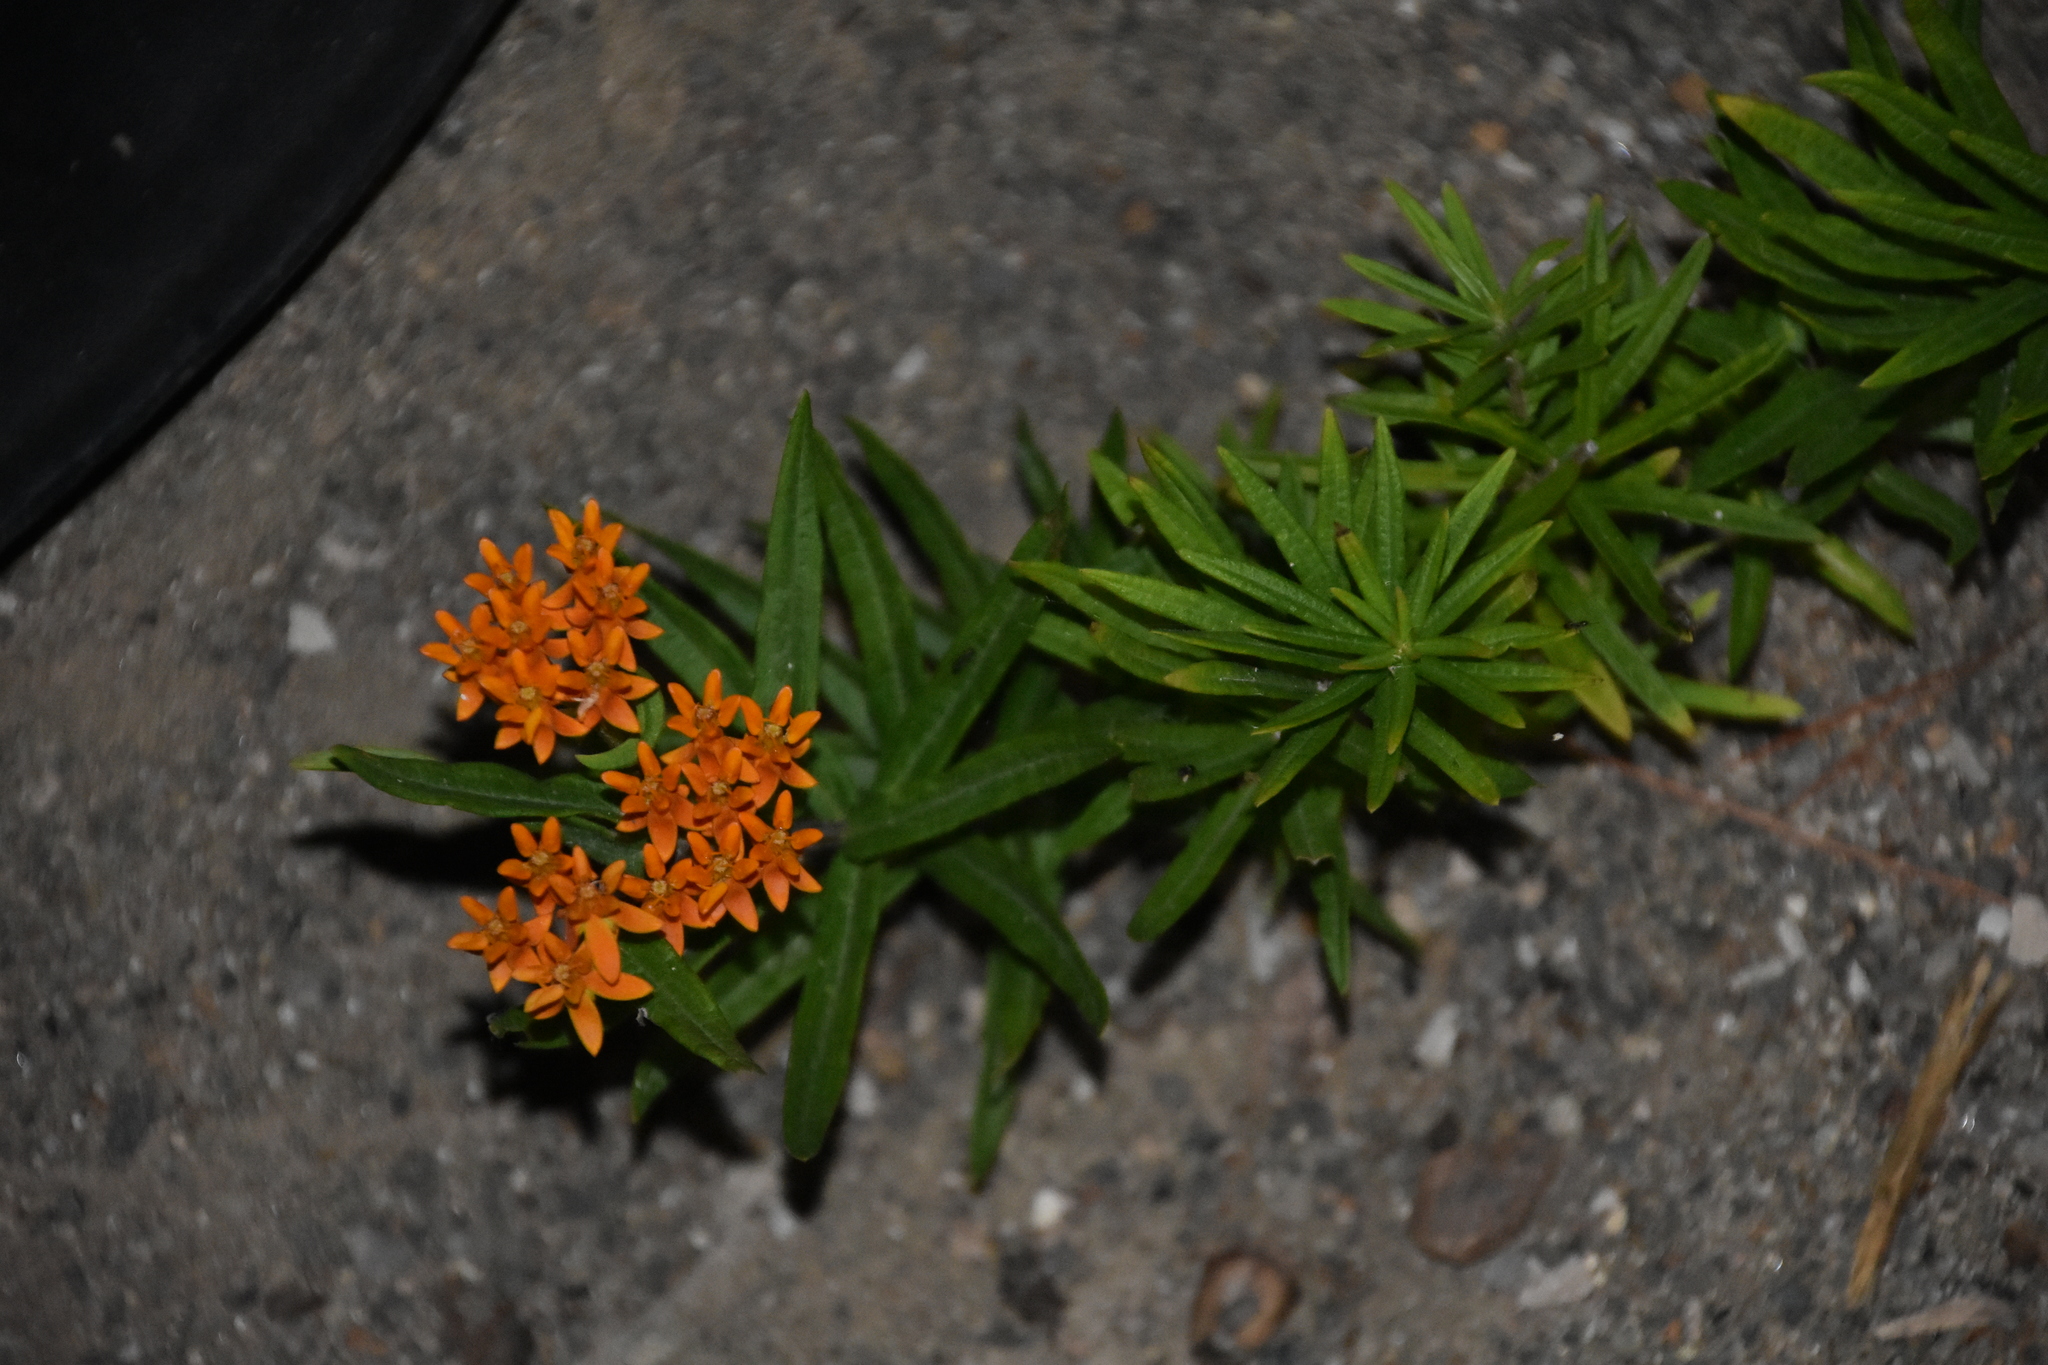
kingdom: Plantae
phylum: Tracheophyta
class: Magnoliopsida
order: Gentianales
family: Apocynaceae
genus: Asclepias
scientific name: Asclepias tuberosa
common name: Butterfly milkweed
